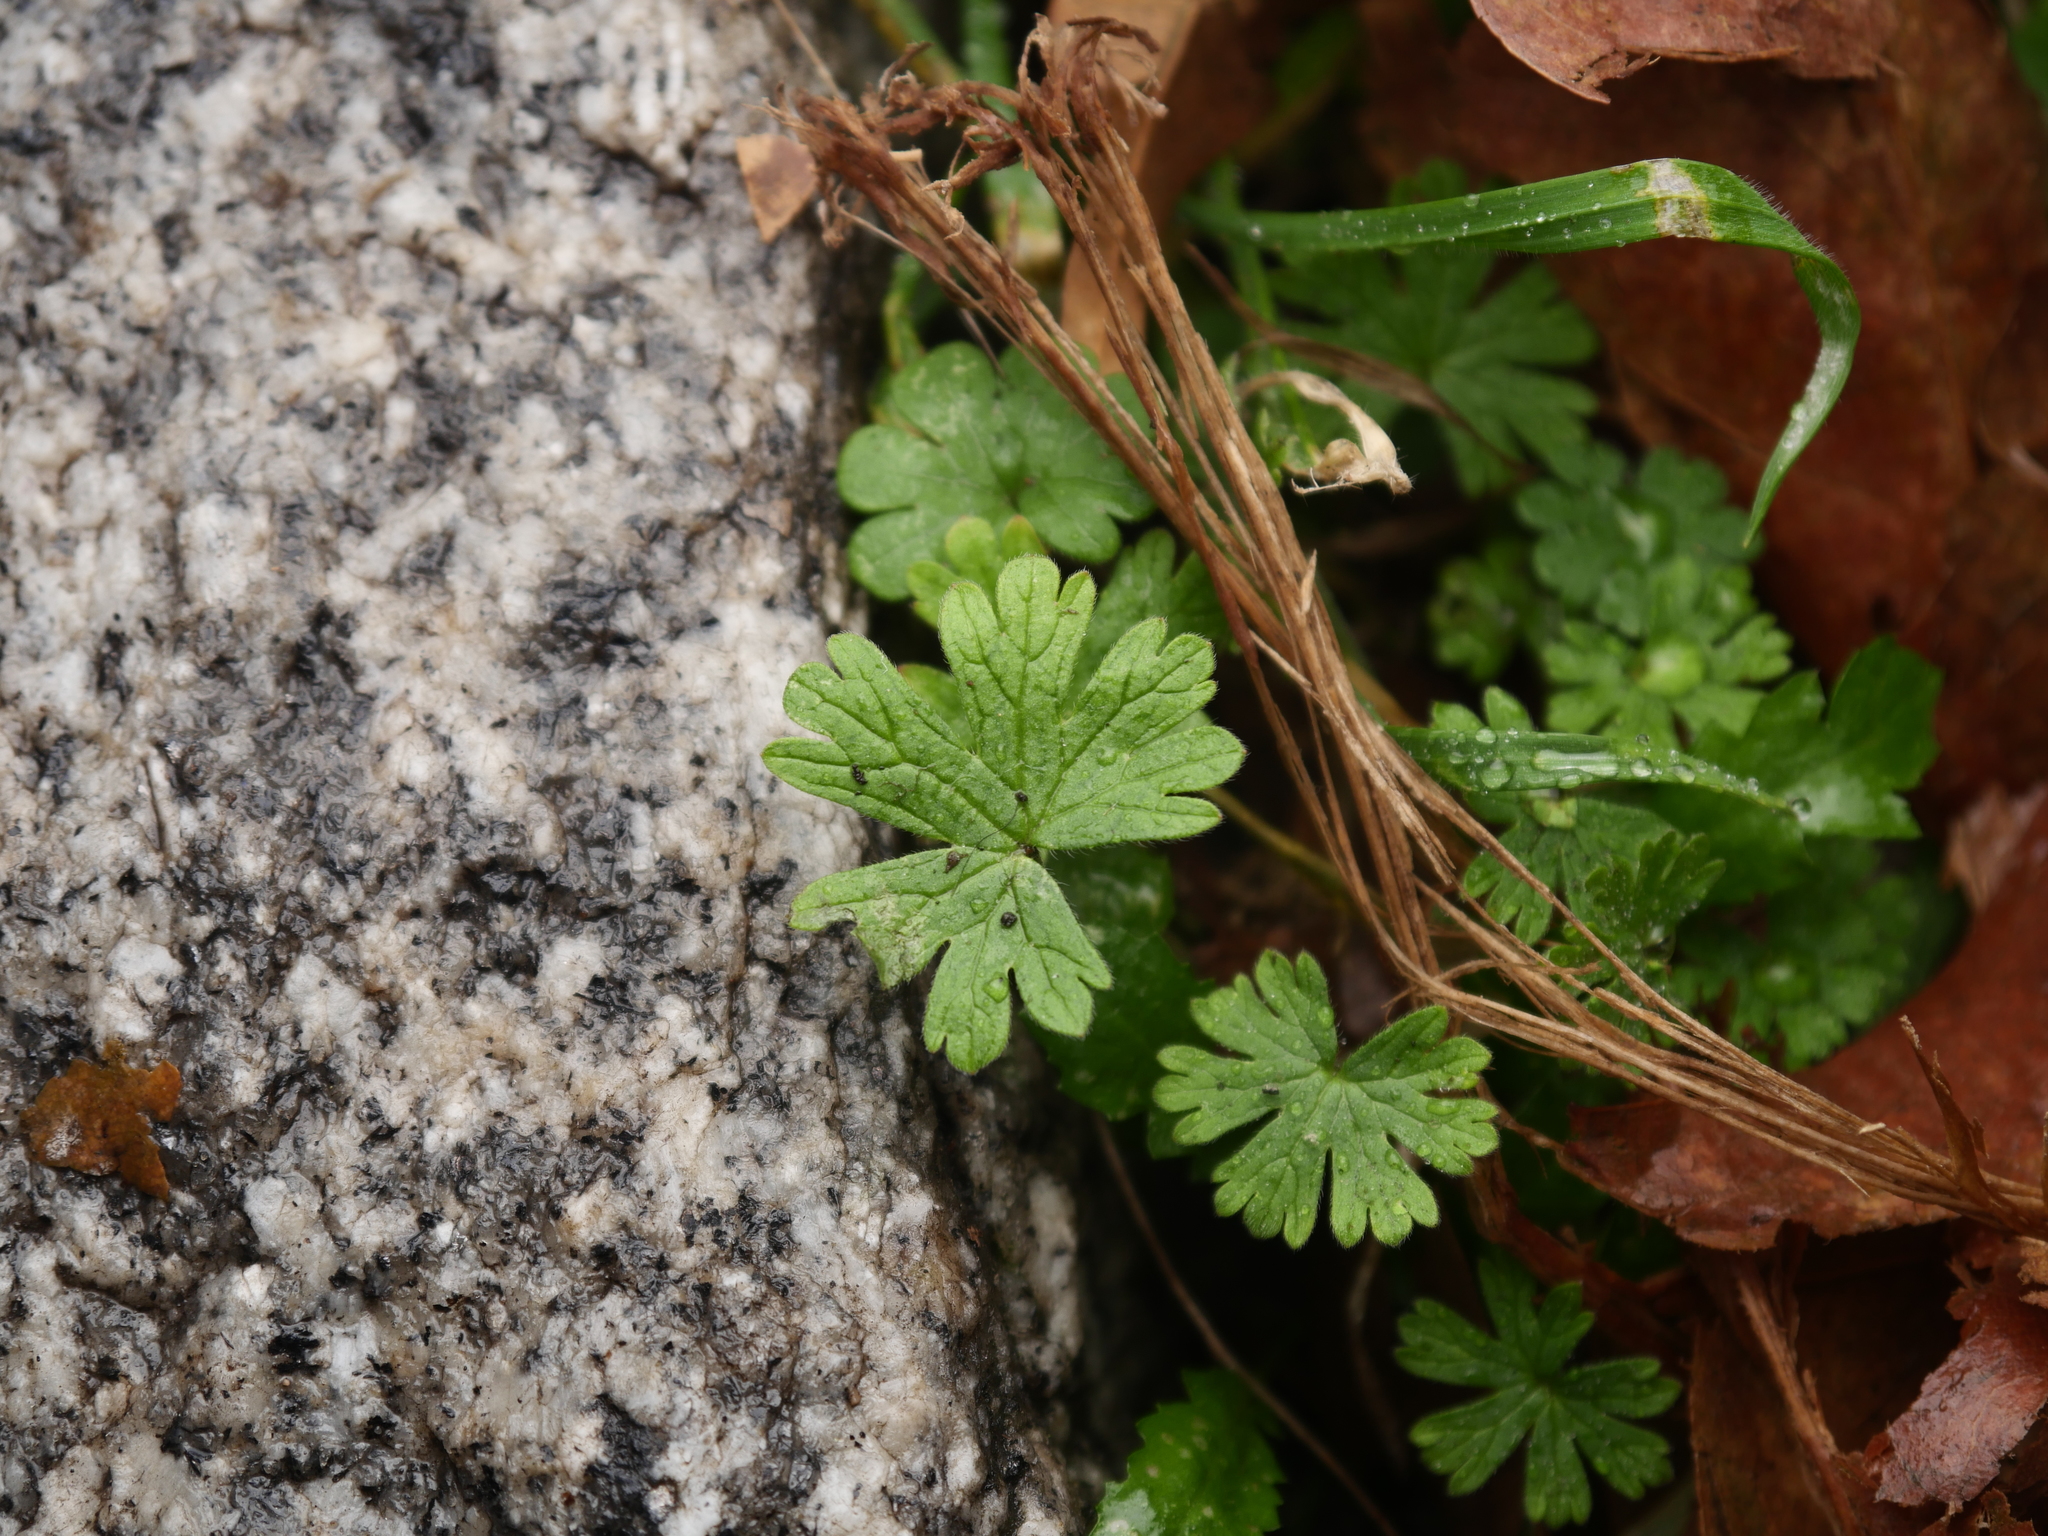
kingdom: Plantae
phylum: Tracheophyta
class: Magnoliopsida
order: Geraniales
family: Geraniaceae
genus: Geranium
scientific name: Geranium pusillum
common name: Small geranium
